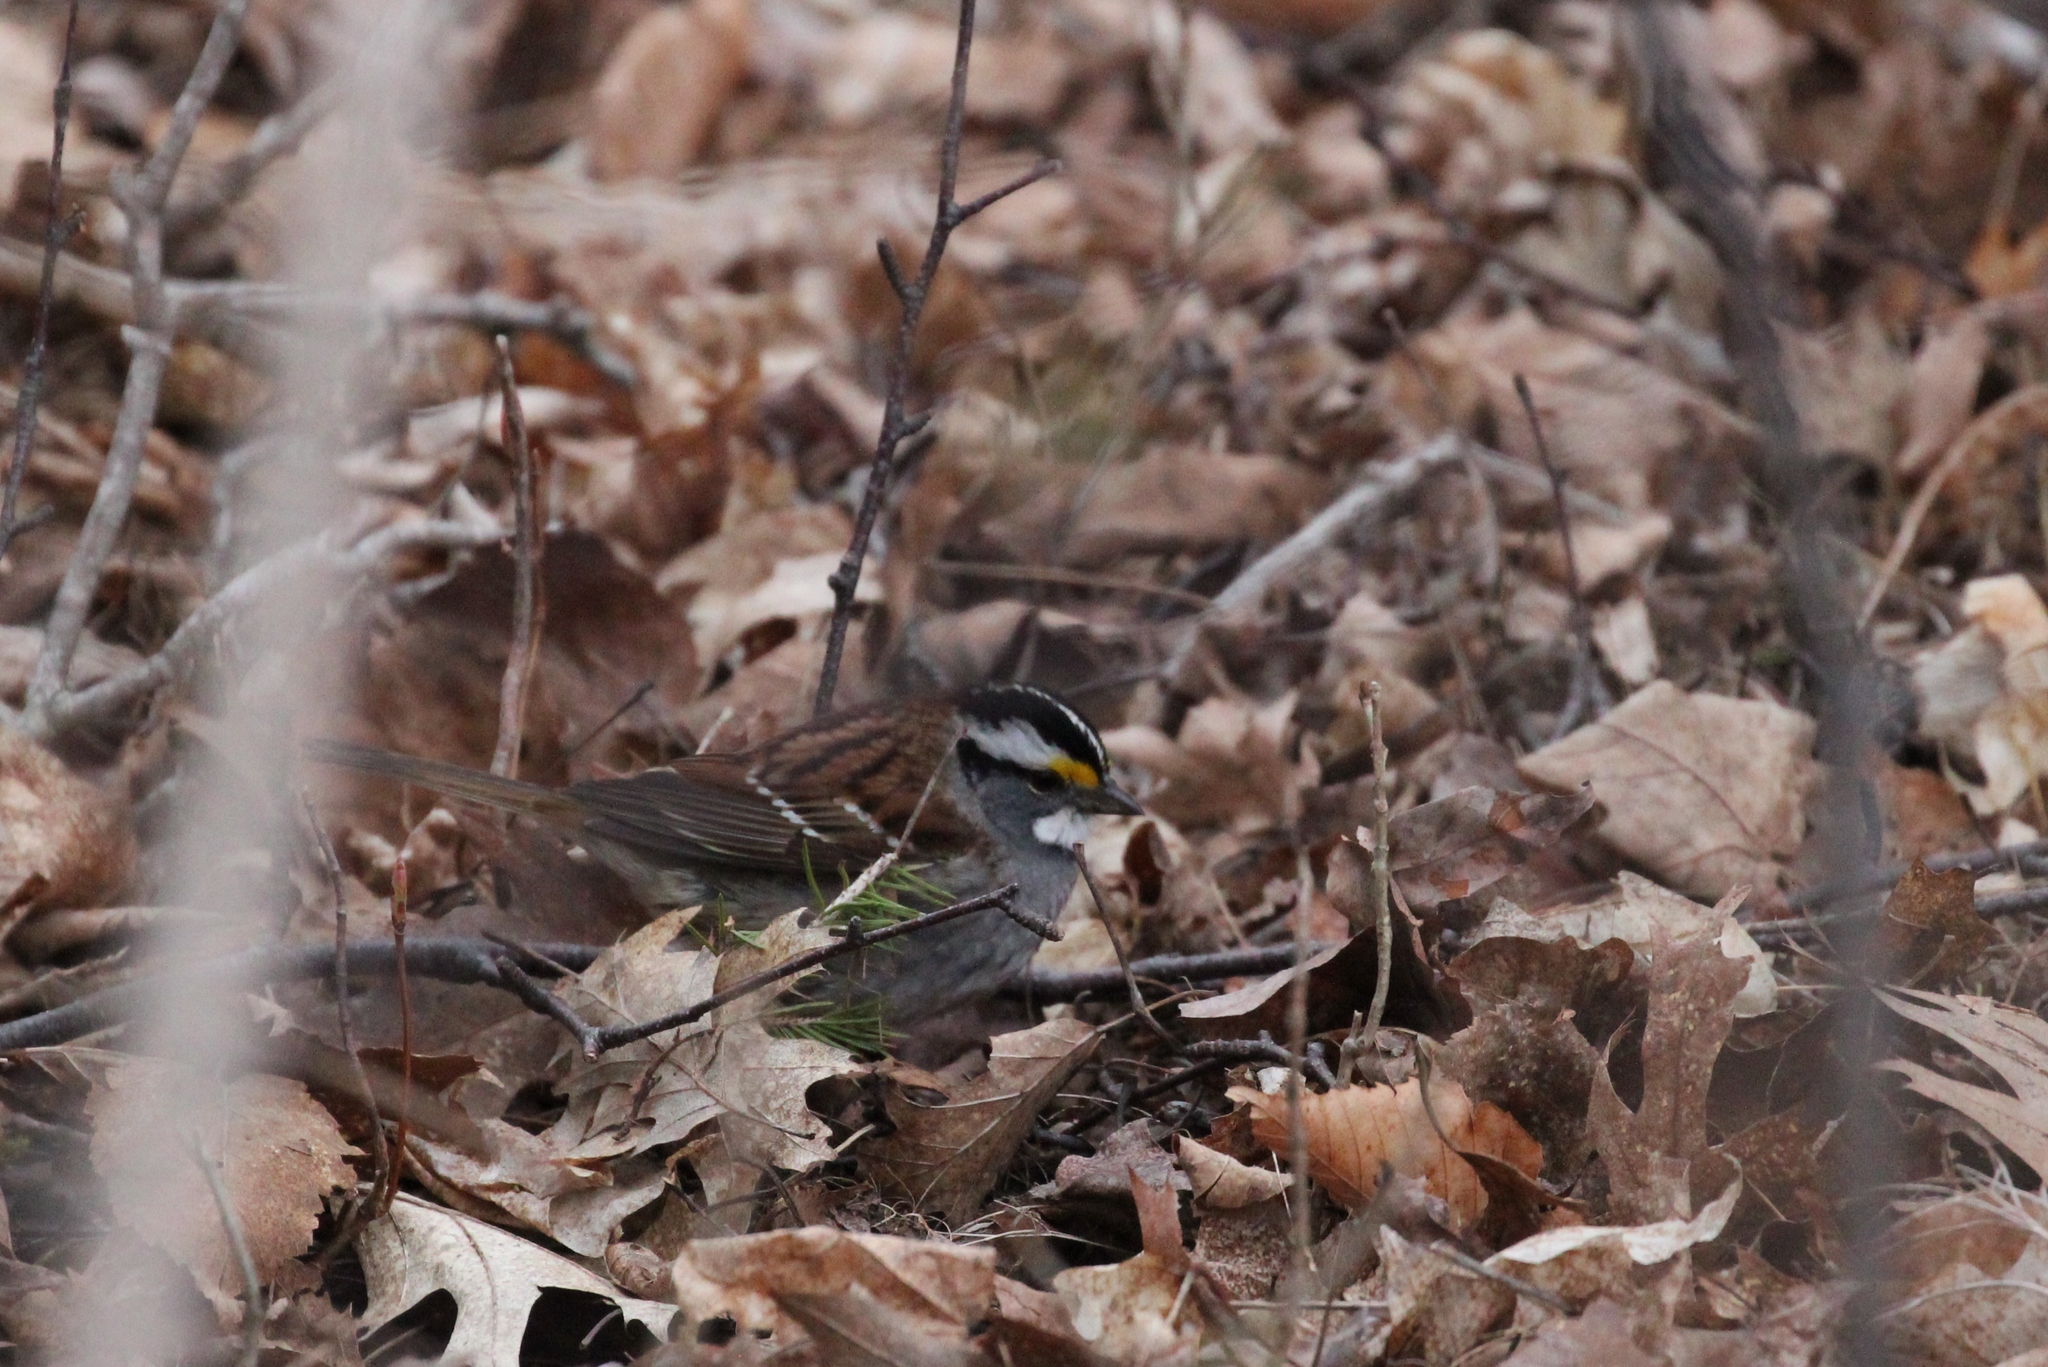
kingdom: Animalia
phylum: Chordata
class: Aves
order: Passeriformes
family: Passerellidae
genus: Zonotrichia
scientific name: Zonotrichia albicollis
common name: White-throated sparrow
